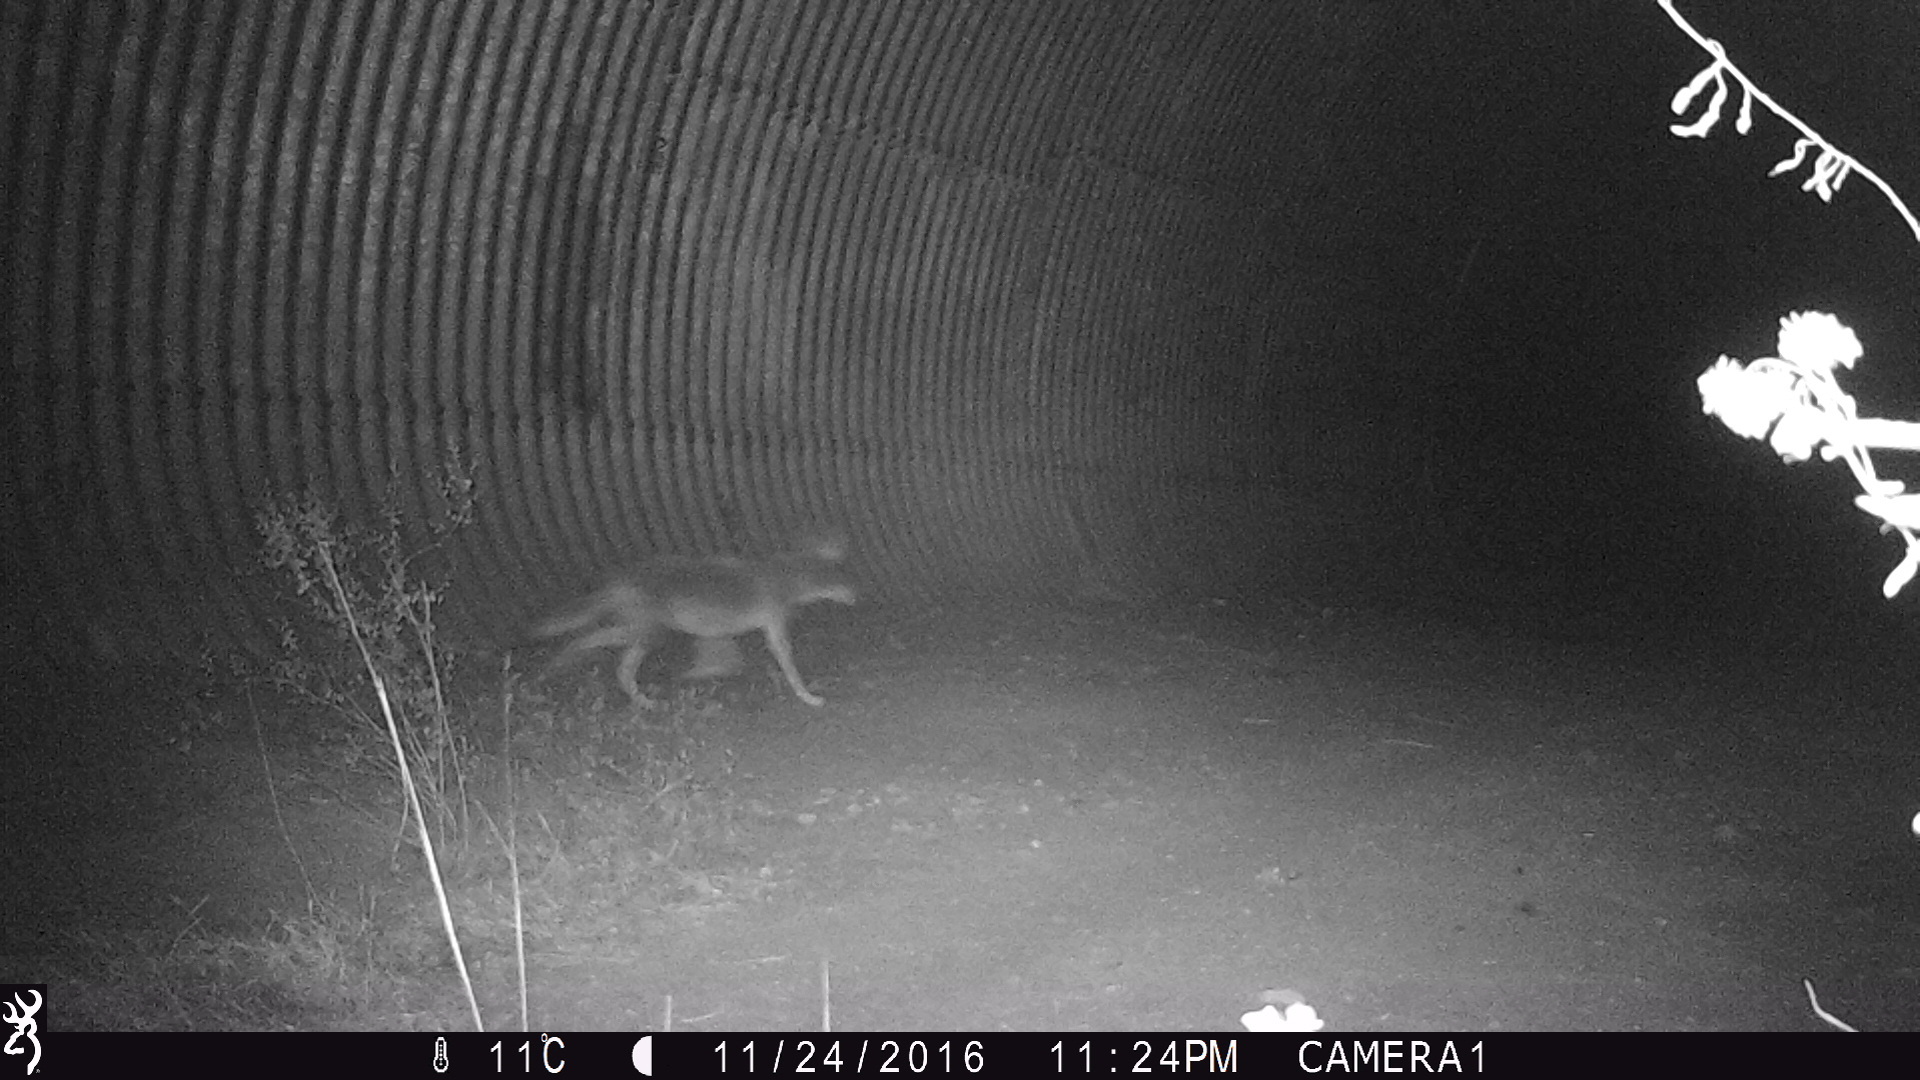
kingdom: Animalia
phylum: Chordata
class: Mammalia
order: Carnivora
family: Canidae
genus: Canis
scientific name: Canis latrans
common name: Coyote
